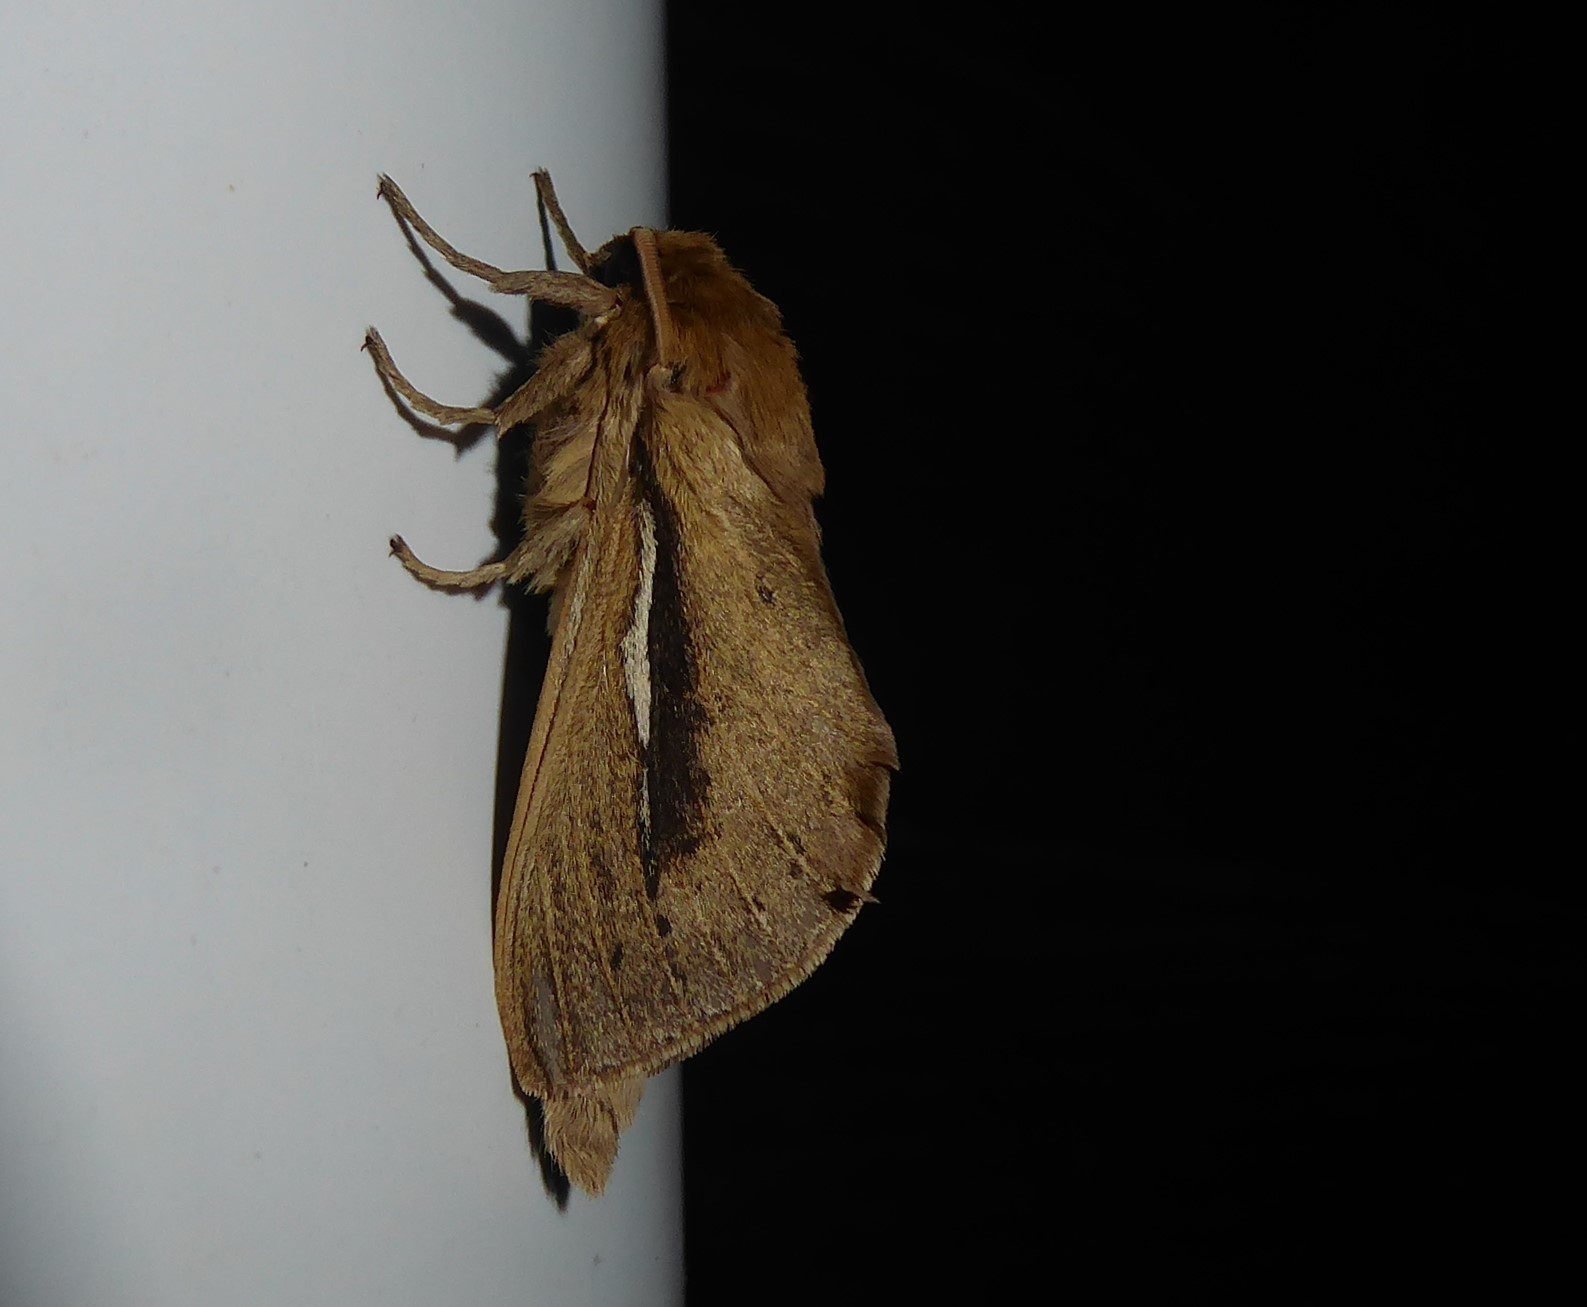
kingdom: Animalia
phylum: Arthropoda
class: Insecta
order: Lepidoptera
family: Hepialidae
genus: Wiseana
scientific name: Wiseana umbraculatus
